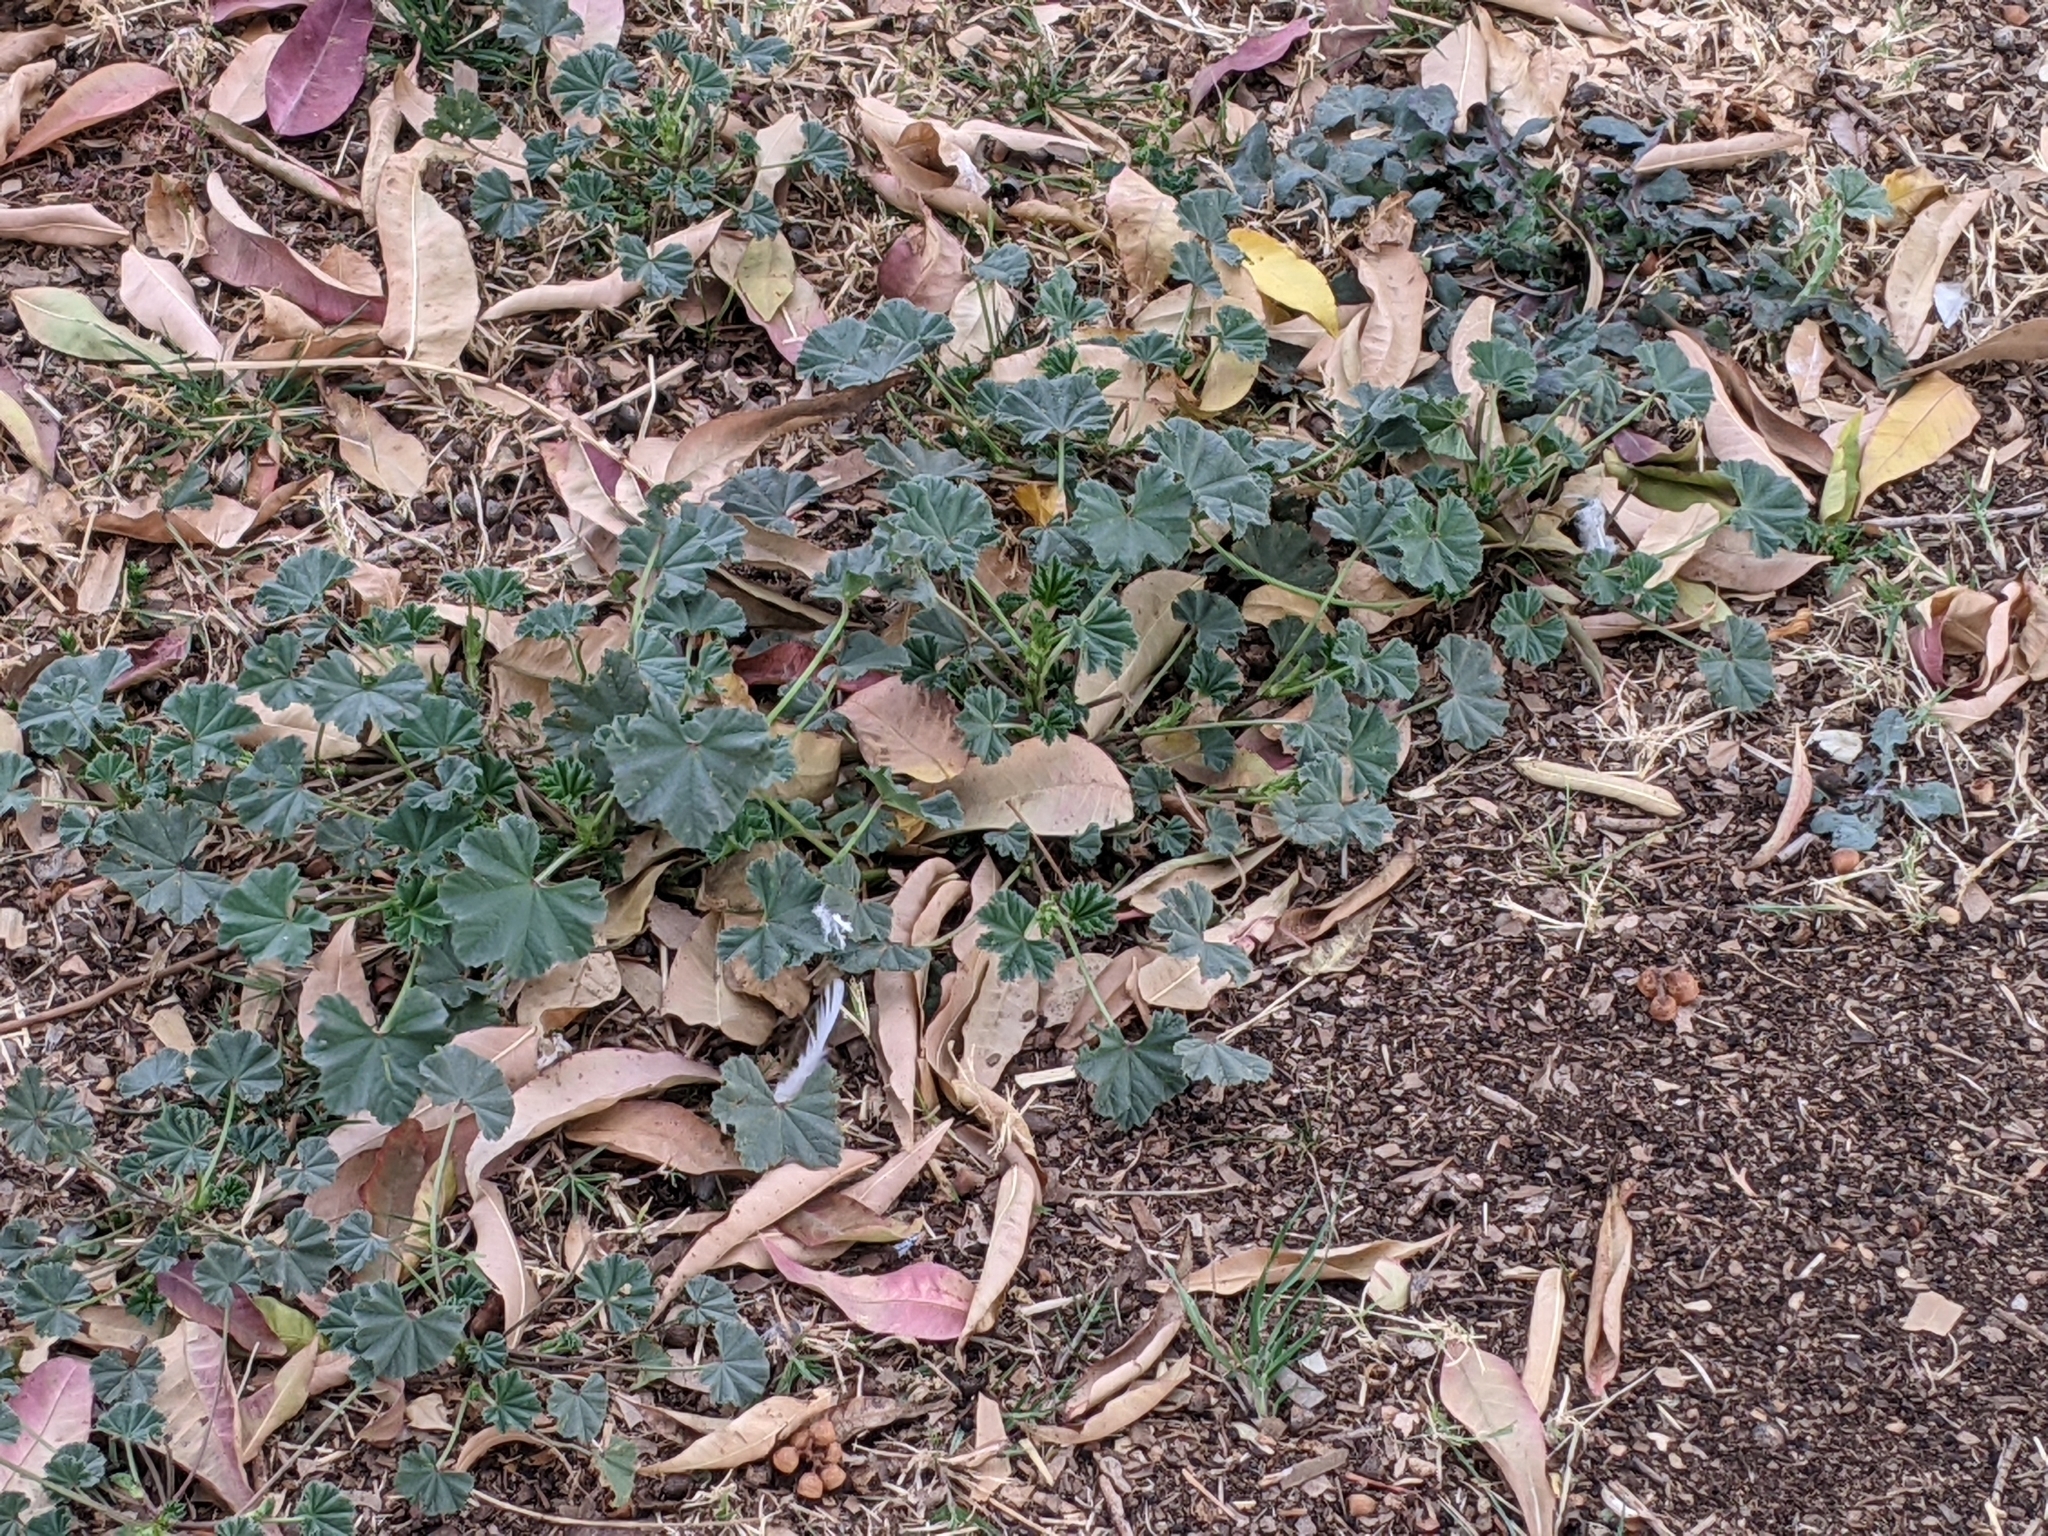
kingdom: Plantae
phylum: Tracheophyta
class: Magnoliopsida
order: Malvales
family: Malvaceae
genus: Malva
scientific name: Malva parviflora
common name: Least mallow
